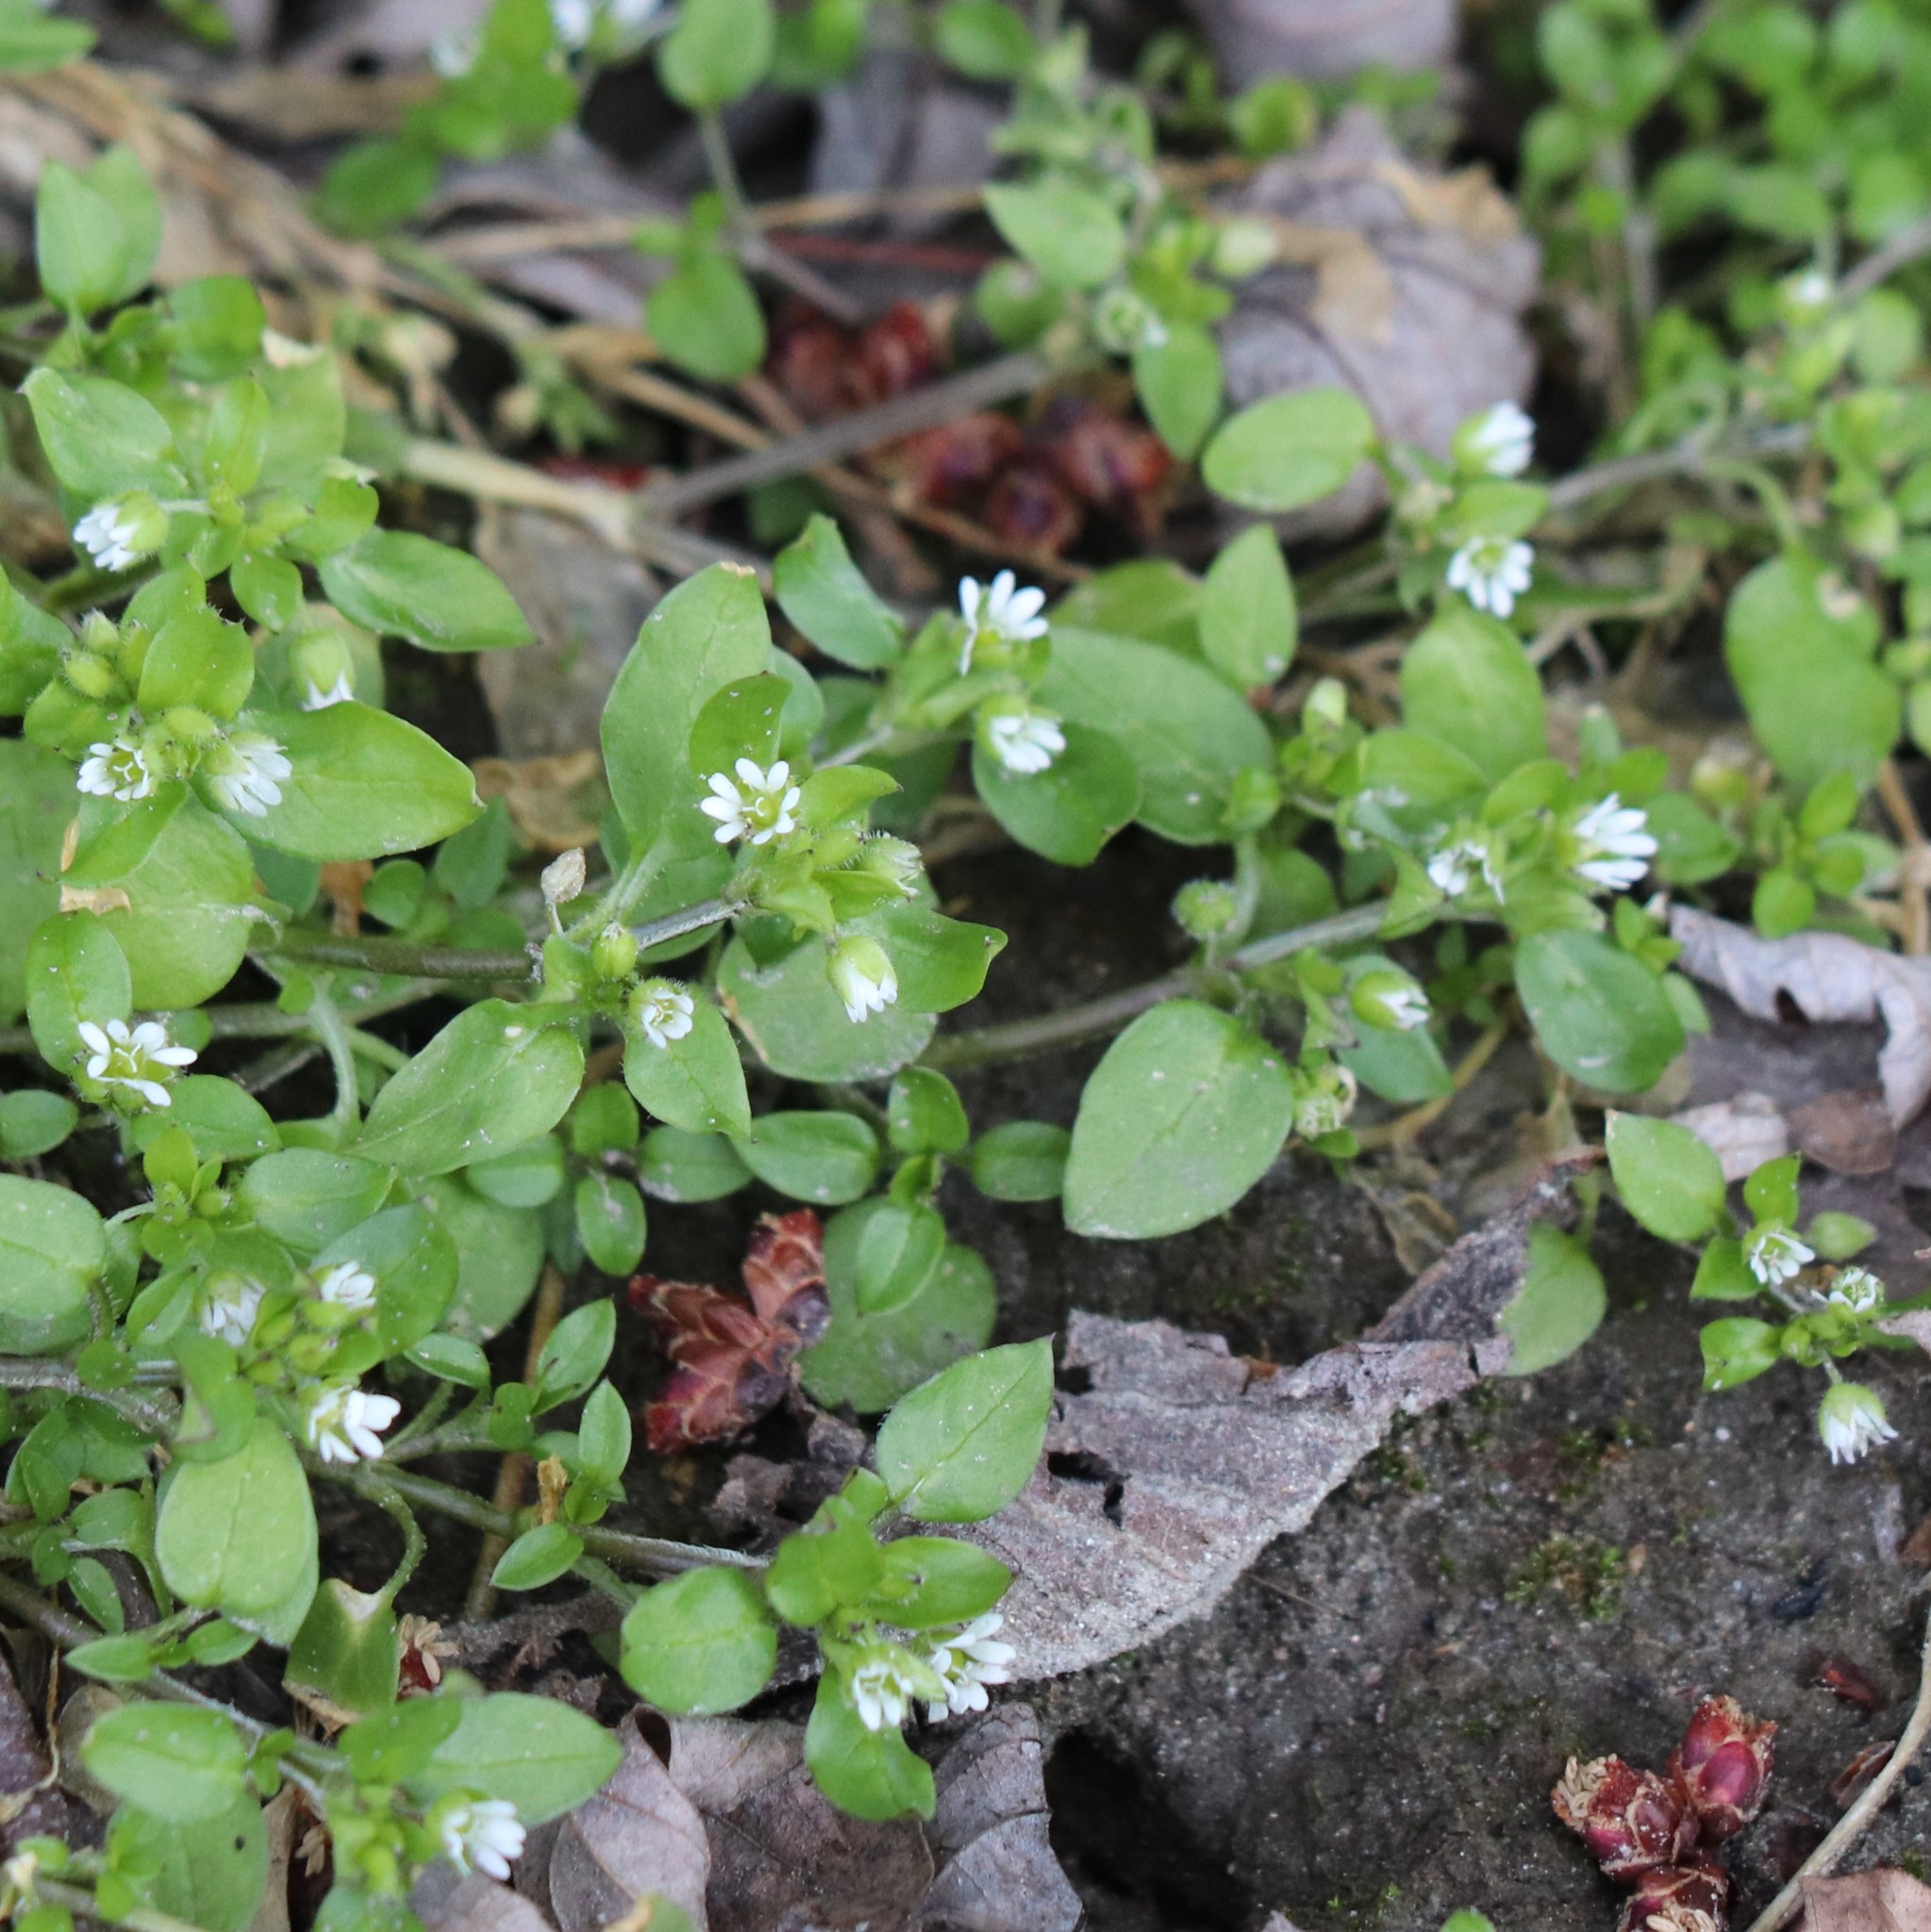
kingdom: Plantae
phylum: Tracheophyta
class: Magnoliopsida
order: Caryophyllales
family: Caryophyllaceae
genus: Stellaria
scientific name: Stellaria media
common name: Common chickweed
